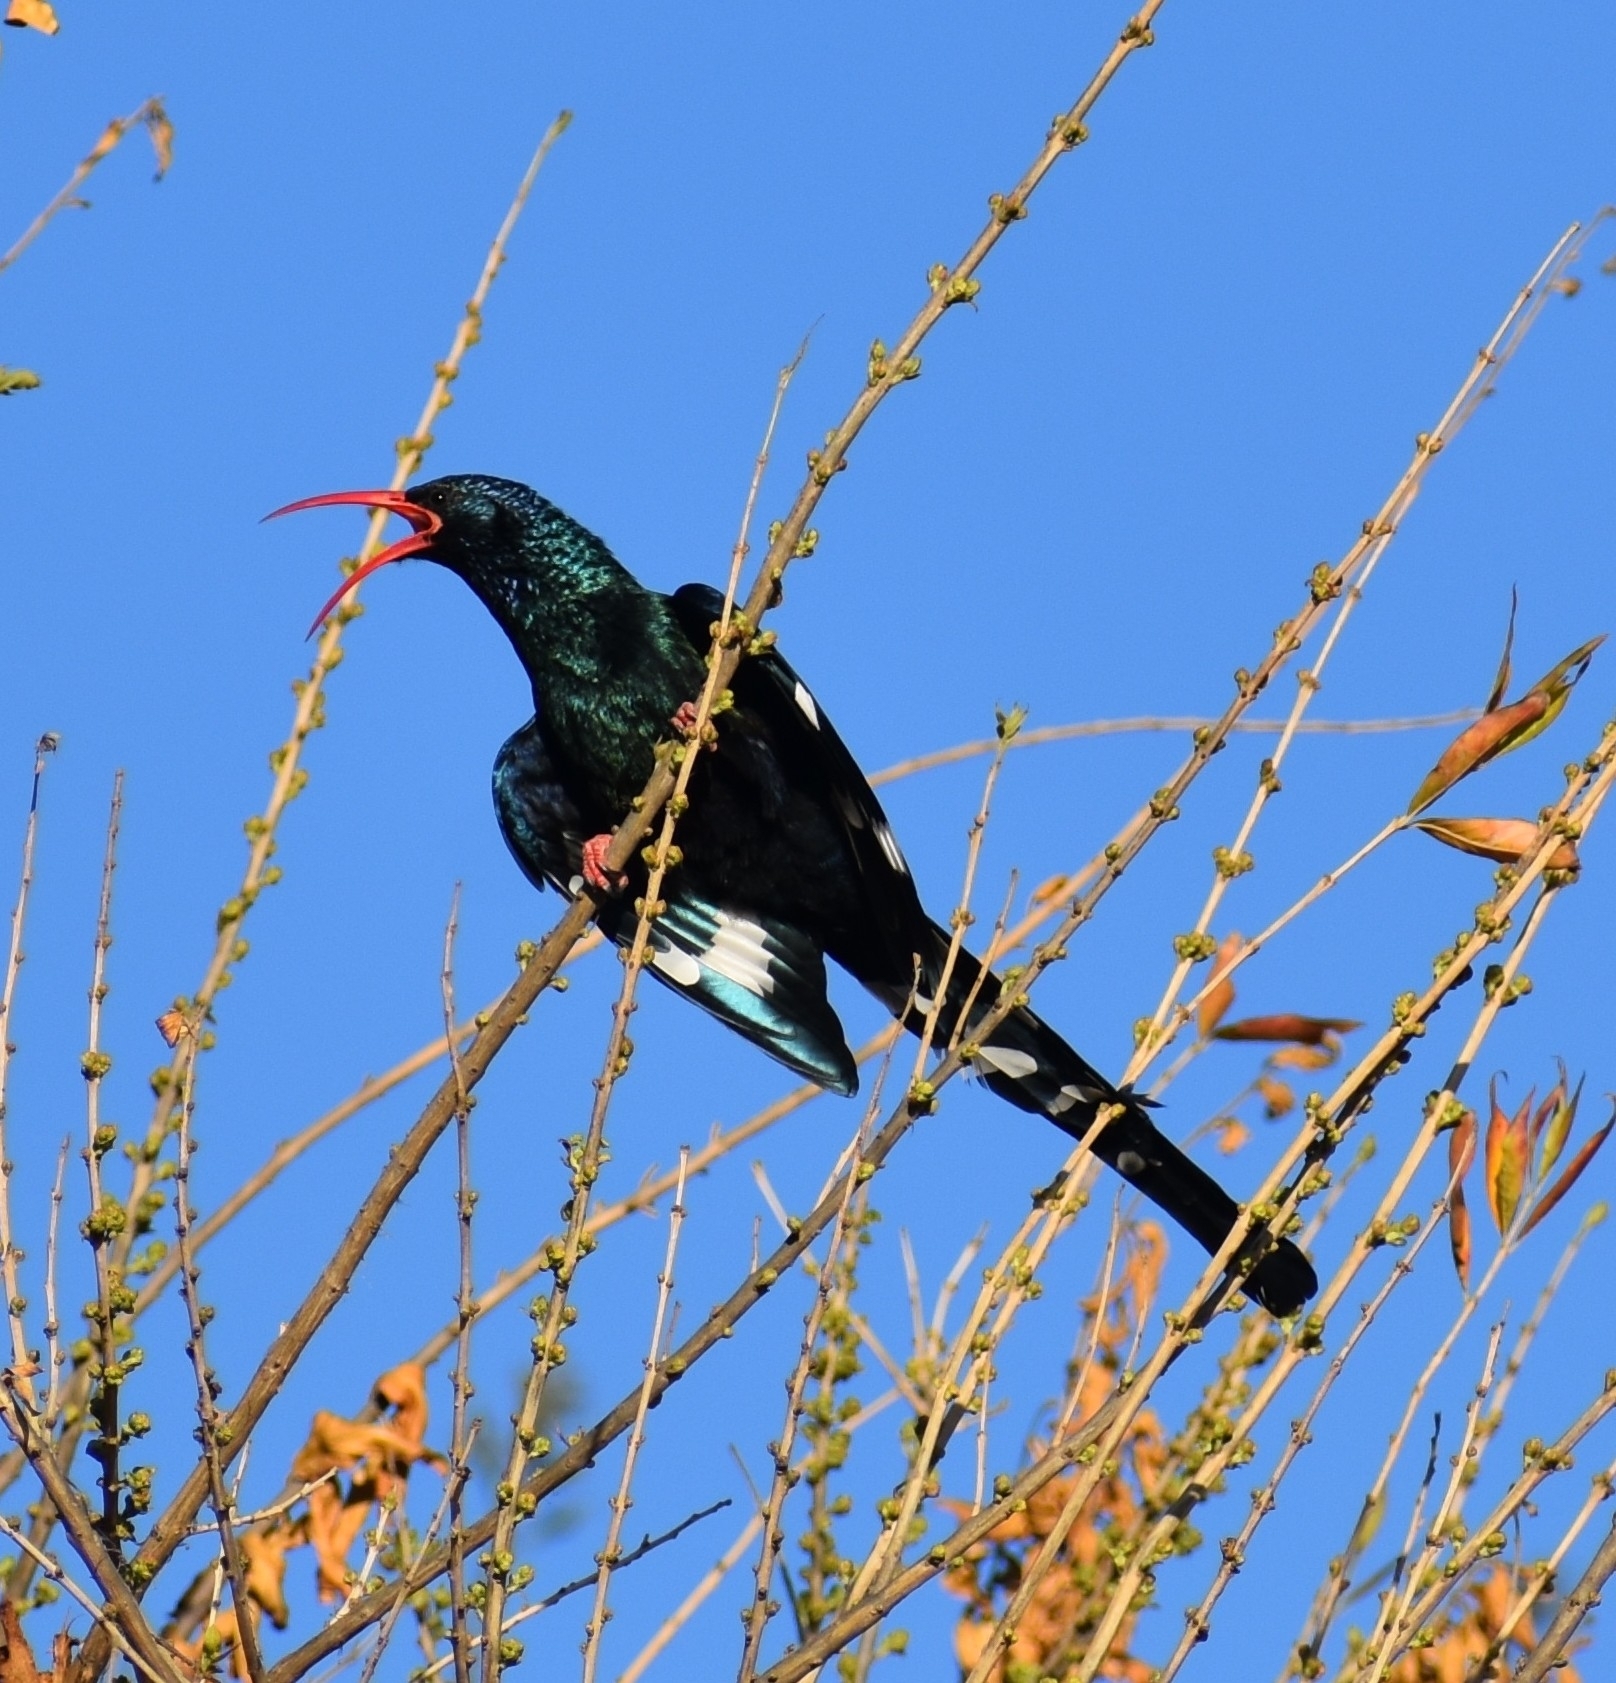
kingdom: Animalia
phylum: Chordata
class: Aves
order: Bucerotiformes
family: Phoeniculidae
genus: Phoeniculus
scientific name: Phoeniculus purpureus
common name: Green woodhoopoe
